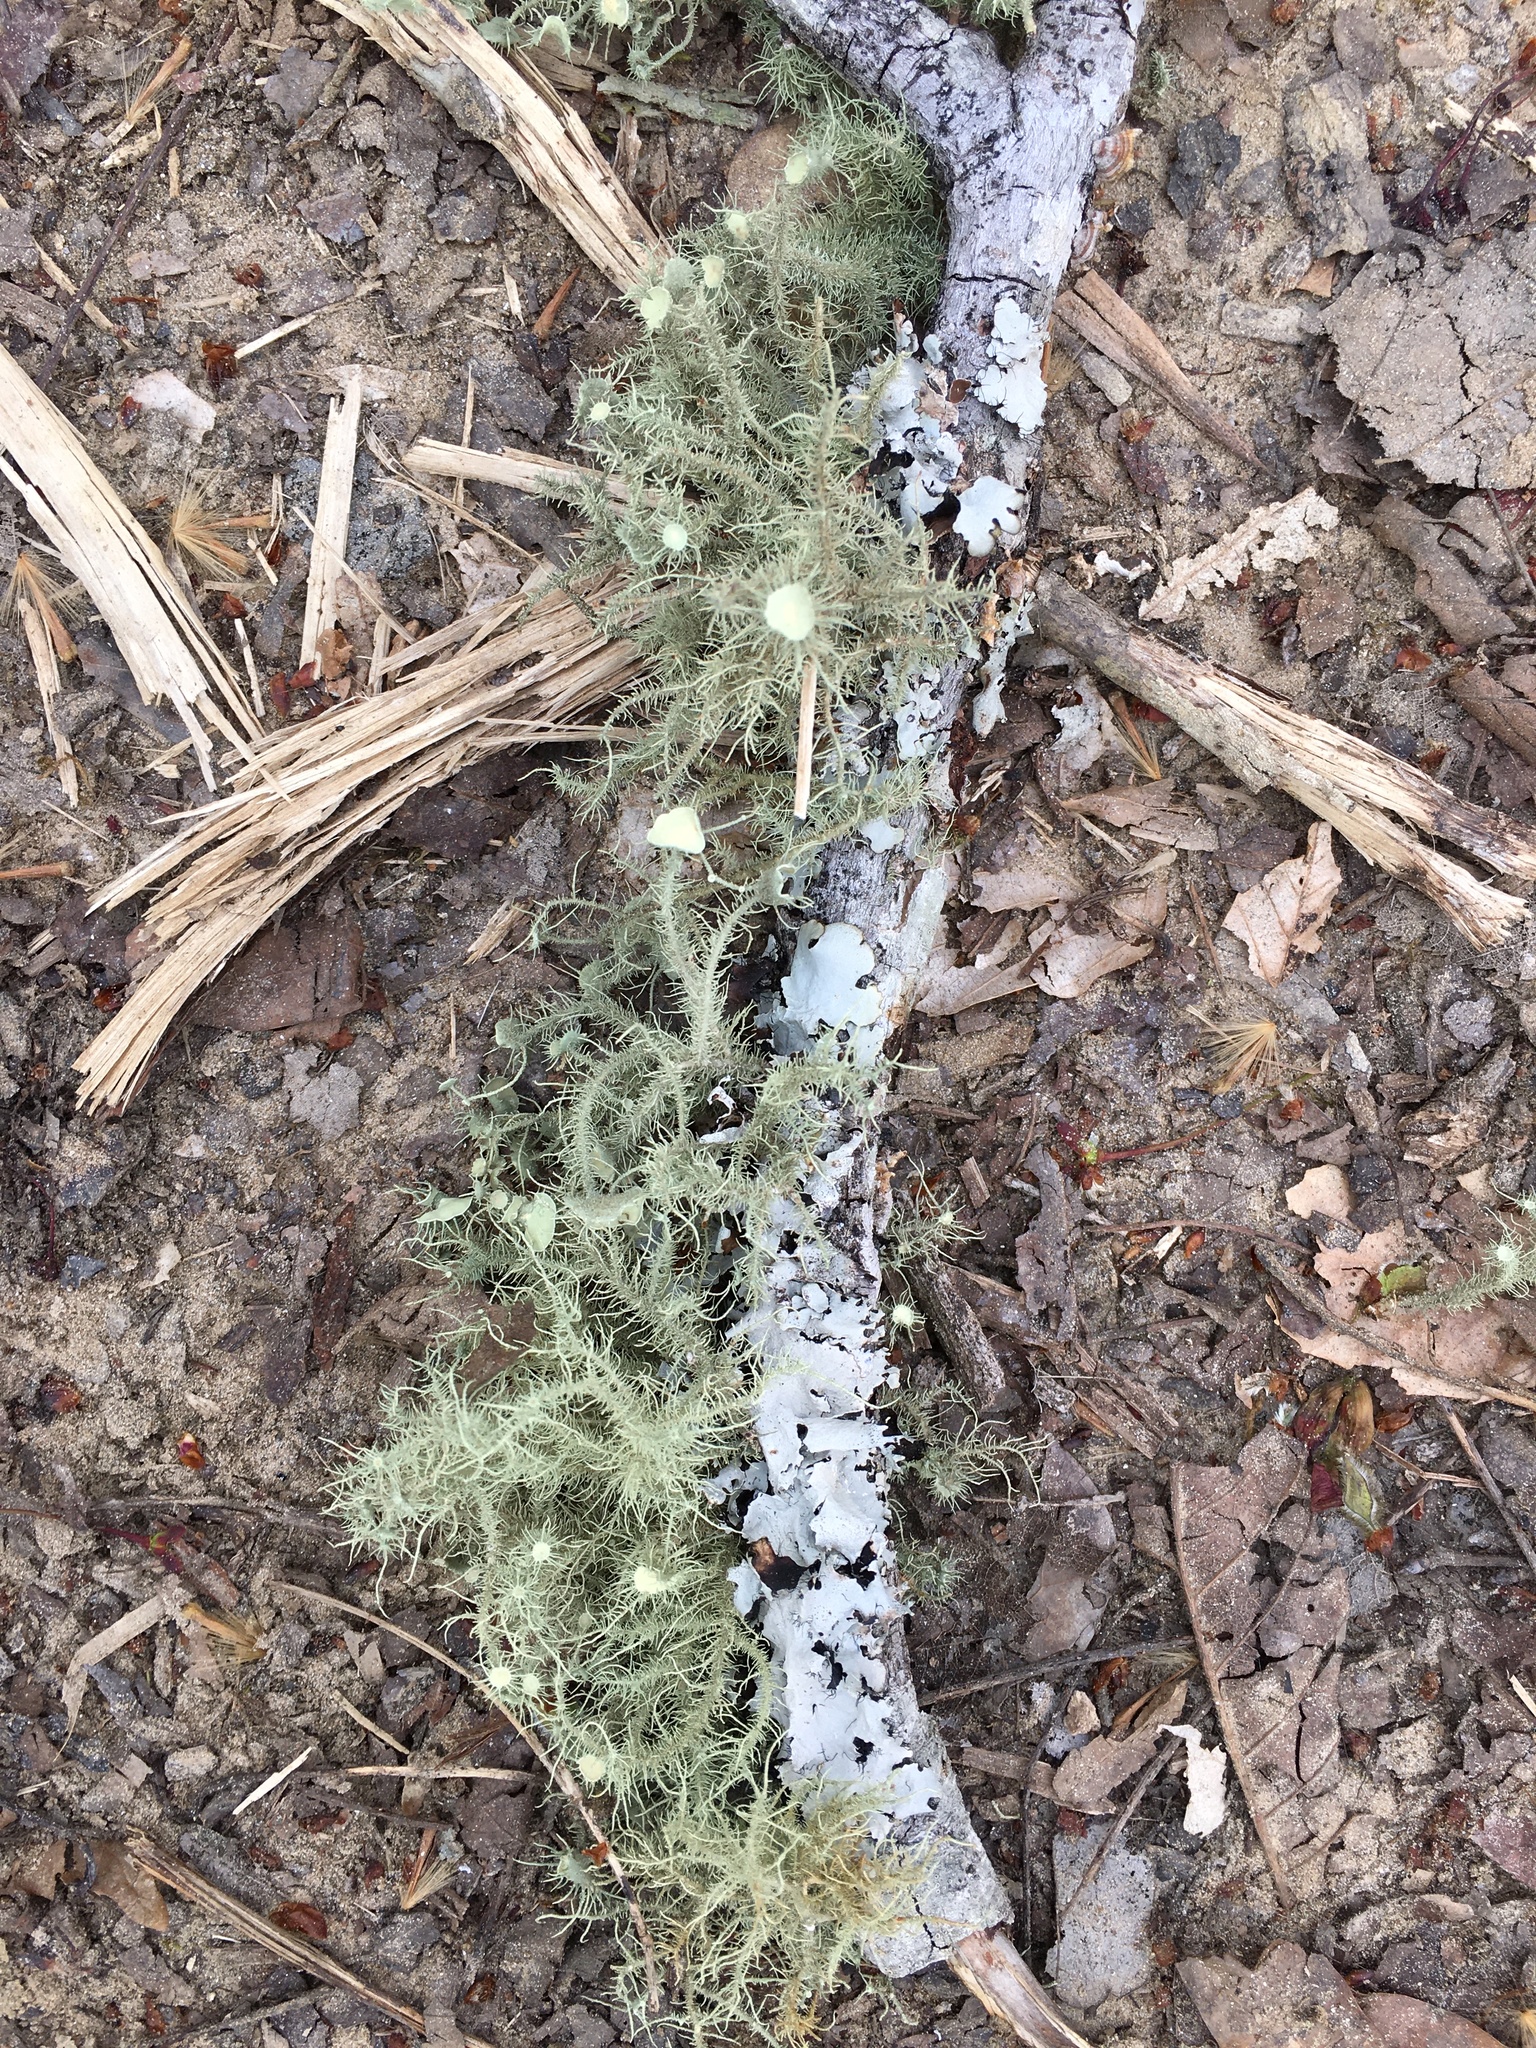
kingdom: Fungi
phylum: Ascomycota
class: Lecanoromycetes
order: Lecanorales
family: Parmeliaceae
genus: Usnea
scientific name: Usnea strigosa
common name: Bushy beard lichen
